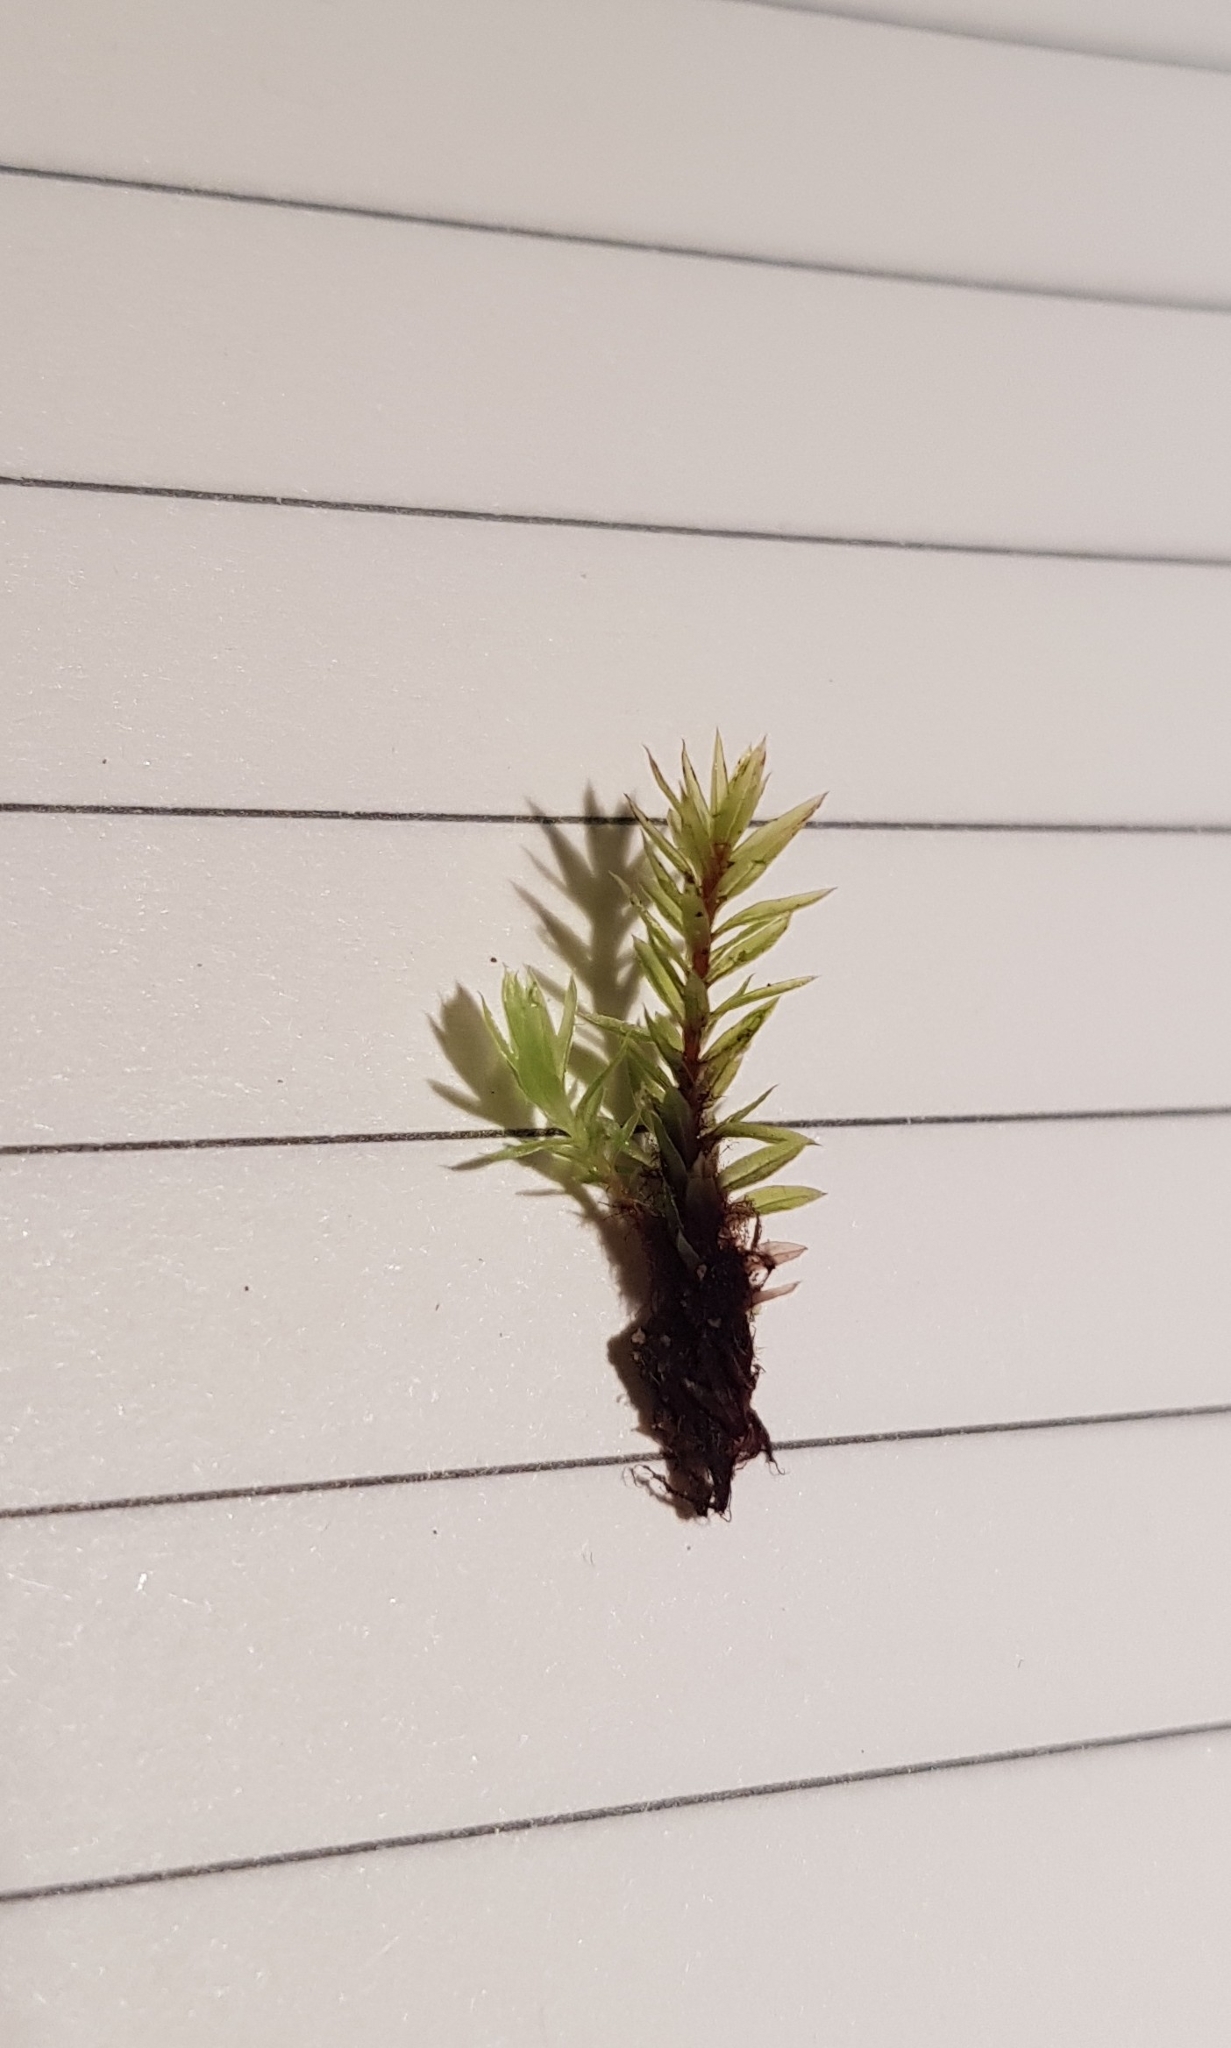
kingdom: Plantae
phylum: Bryophyta
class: Bryopsida
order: Bryales
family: Bryaceae
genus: Ptychostomum
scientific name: Ptychostomum pseudotriquetrum
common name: Long-leaved thread moss
